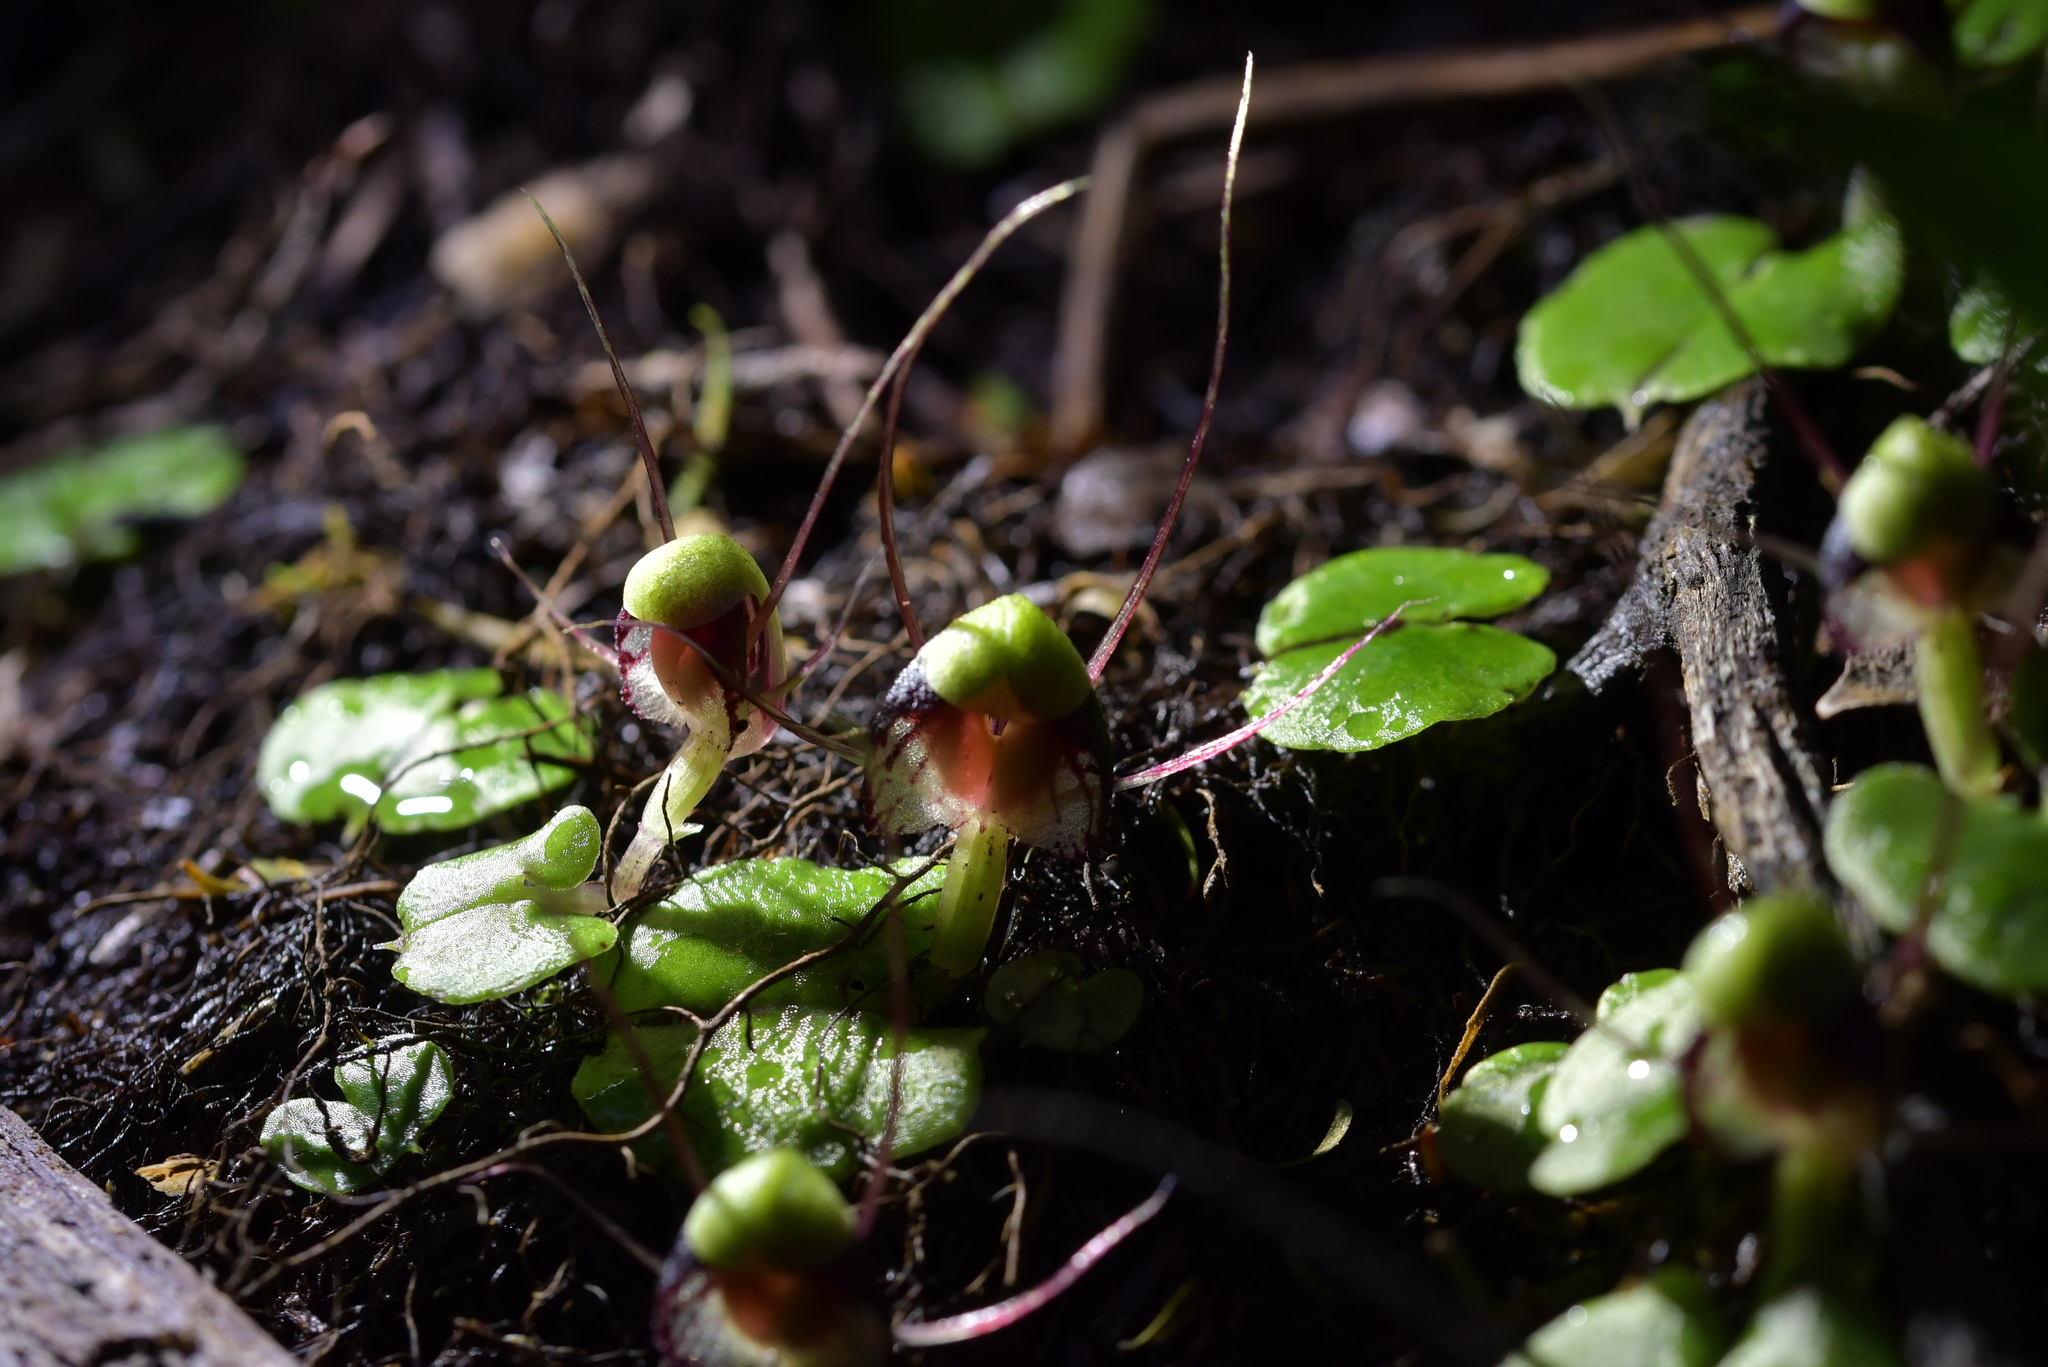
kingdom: Plantae
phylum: Tracheophyta
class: Liliopsida
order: Asparagales
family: Orchidaceae
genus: Corybas
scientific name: Corybas vitreus
